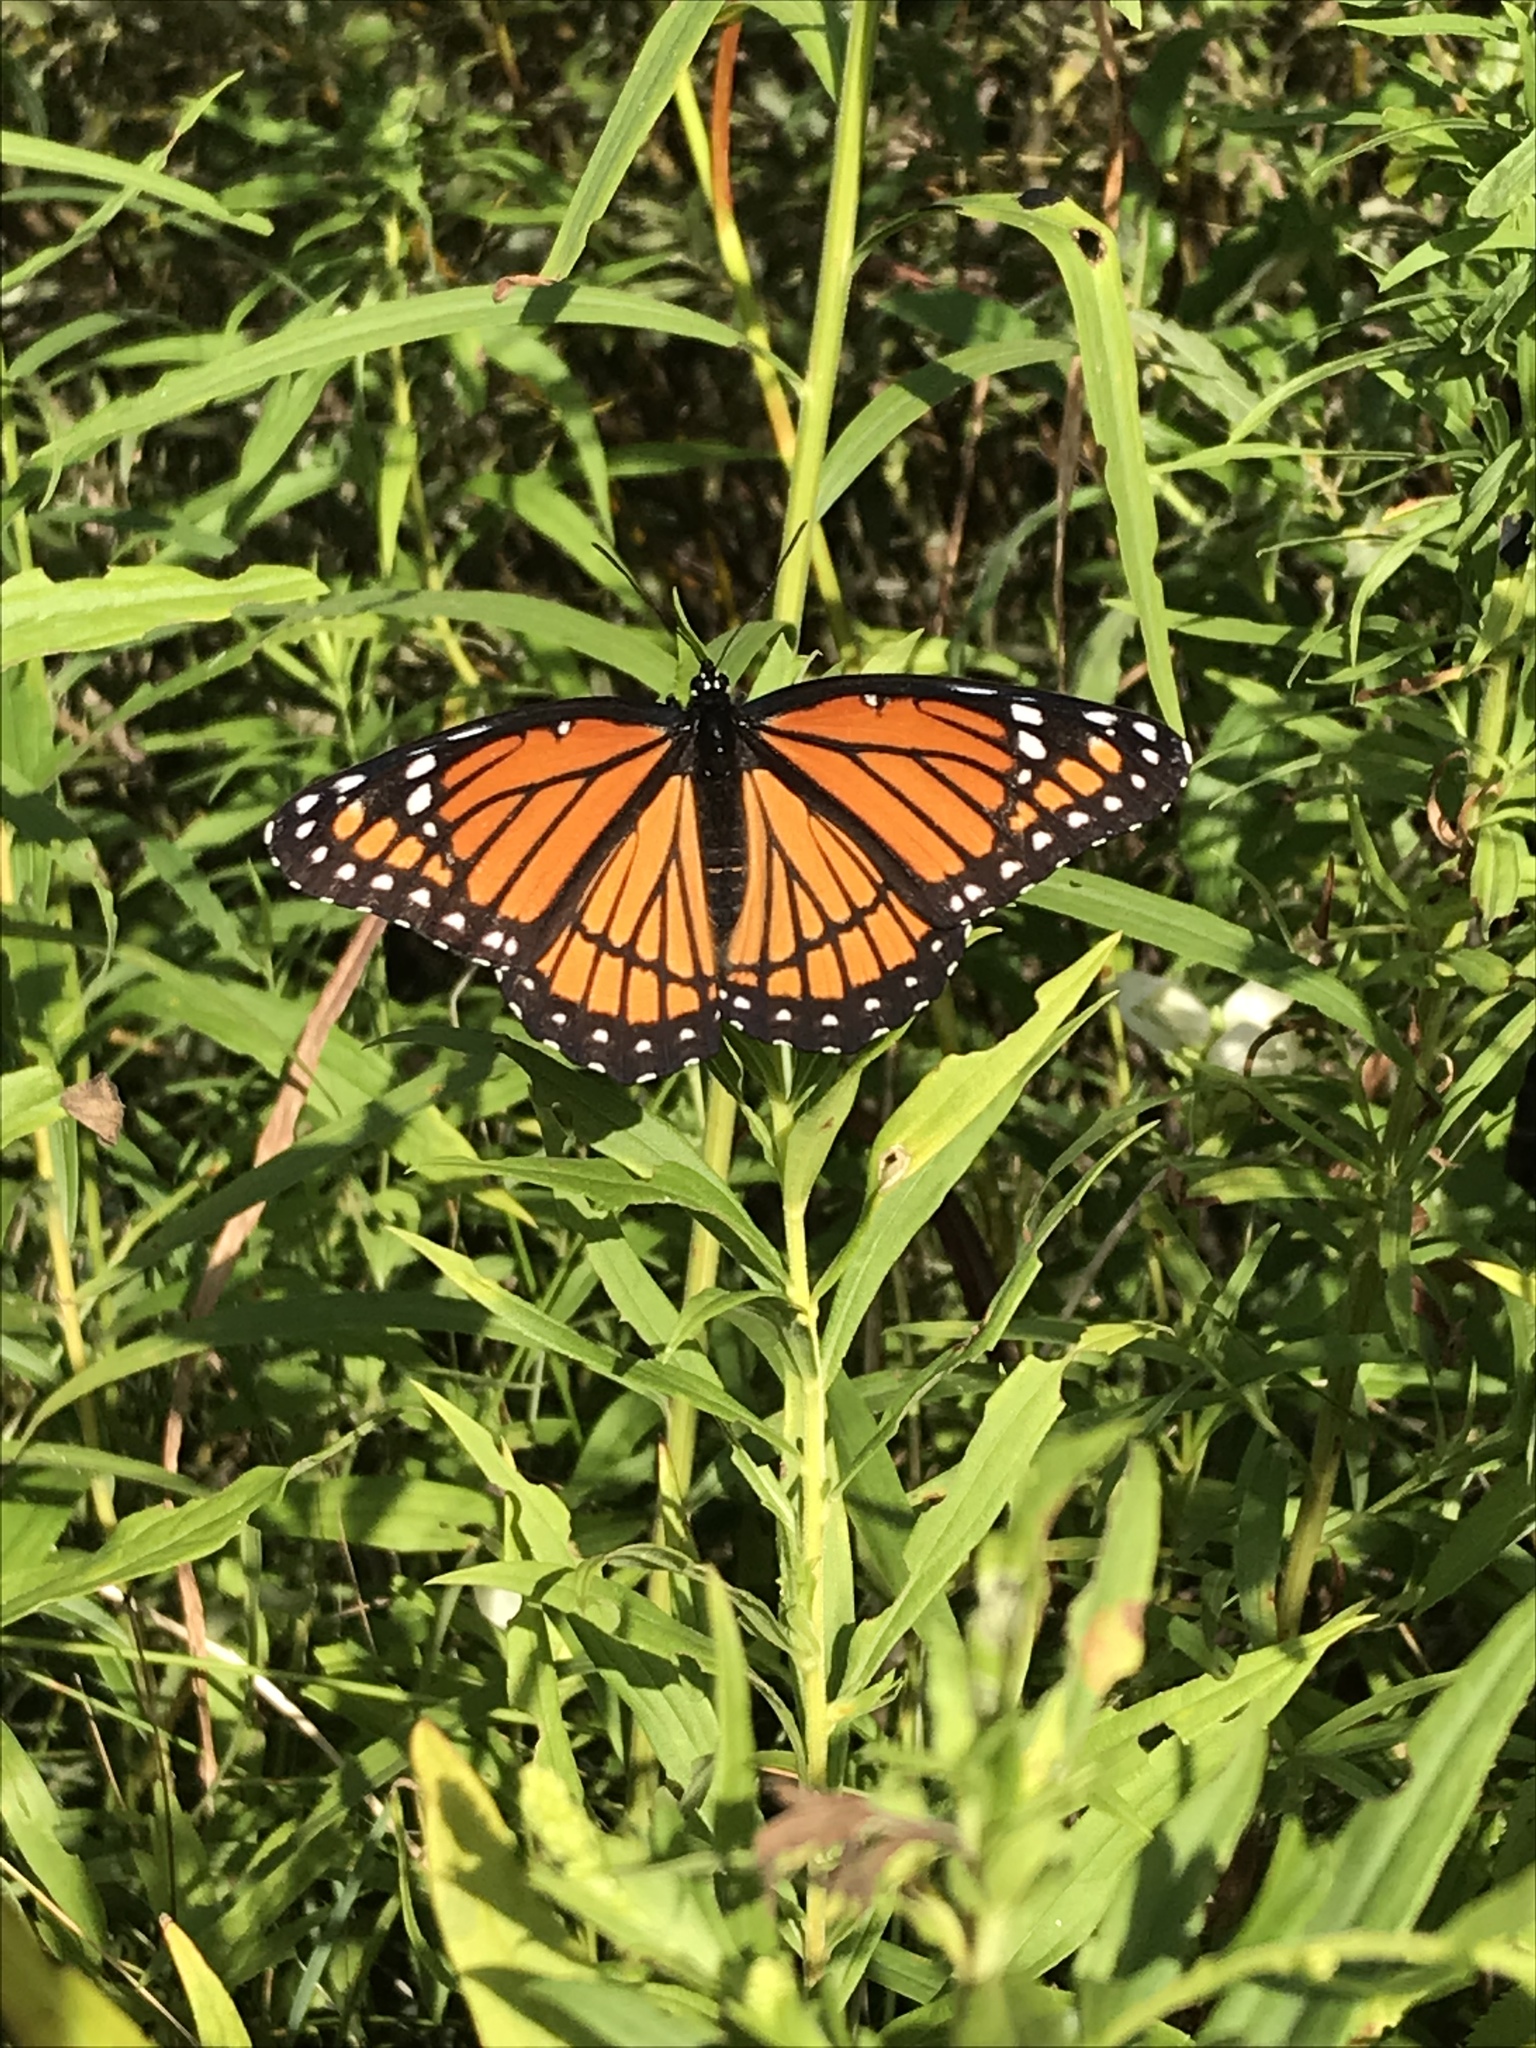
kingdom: Animalia
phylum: Arthropoda
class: Insecta
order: Lepidoptera
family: Nymphalidae
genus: Limenitis
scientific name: Limenitis archippus
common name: Viceroy
